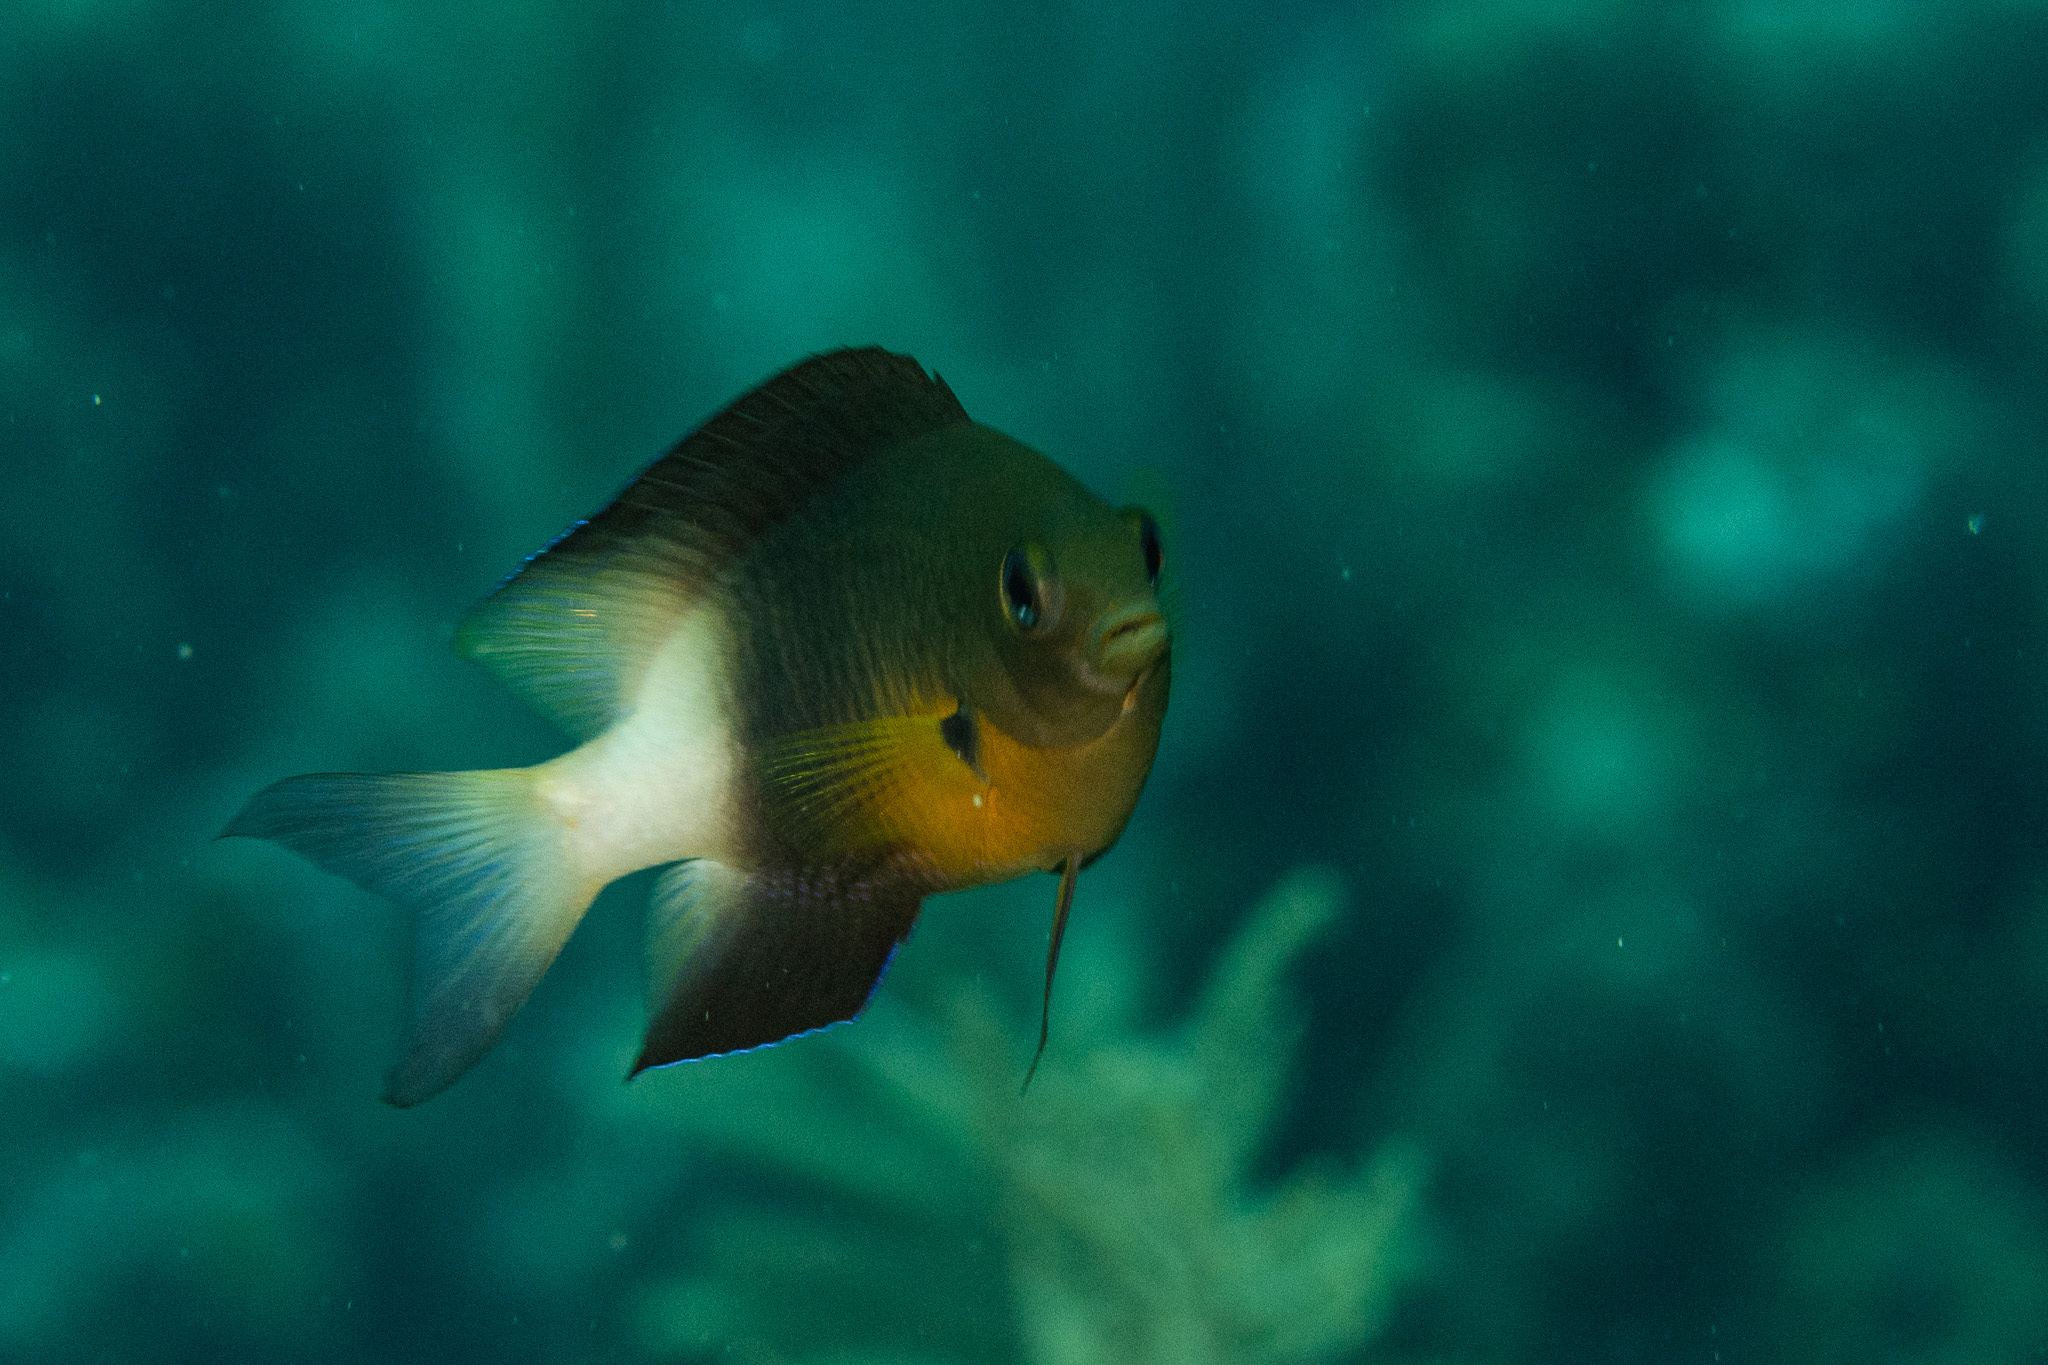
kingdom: Animalia
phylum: Chordata
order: Perciformes
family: Pomacentridae
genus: Stegastes
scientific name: Stegastes partitus
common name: Bicolor damselfish
